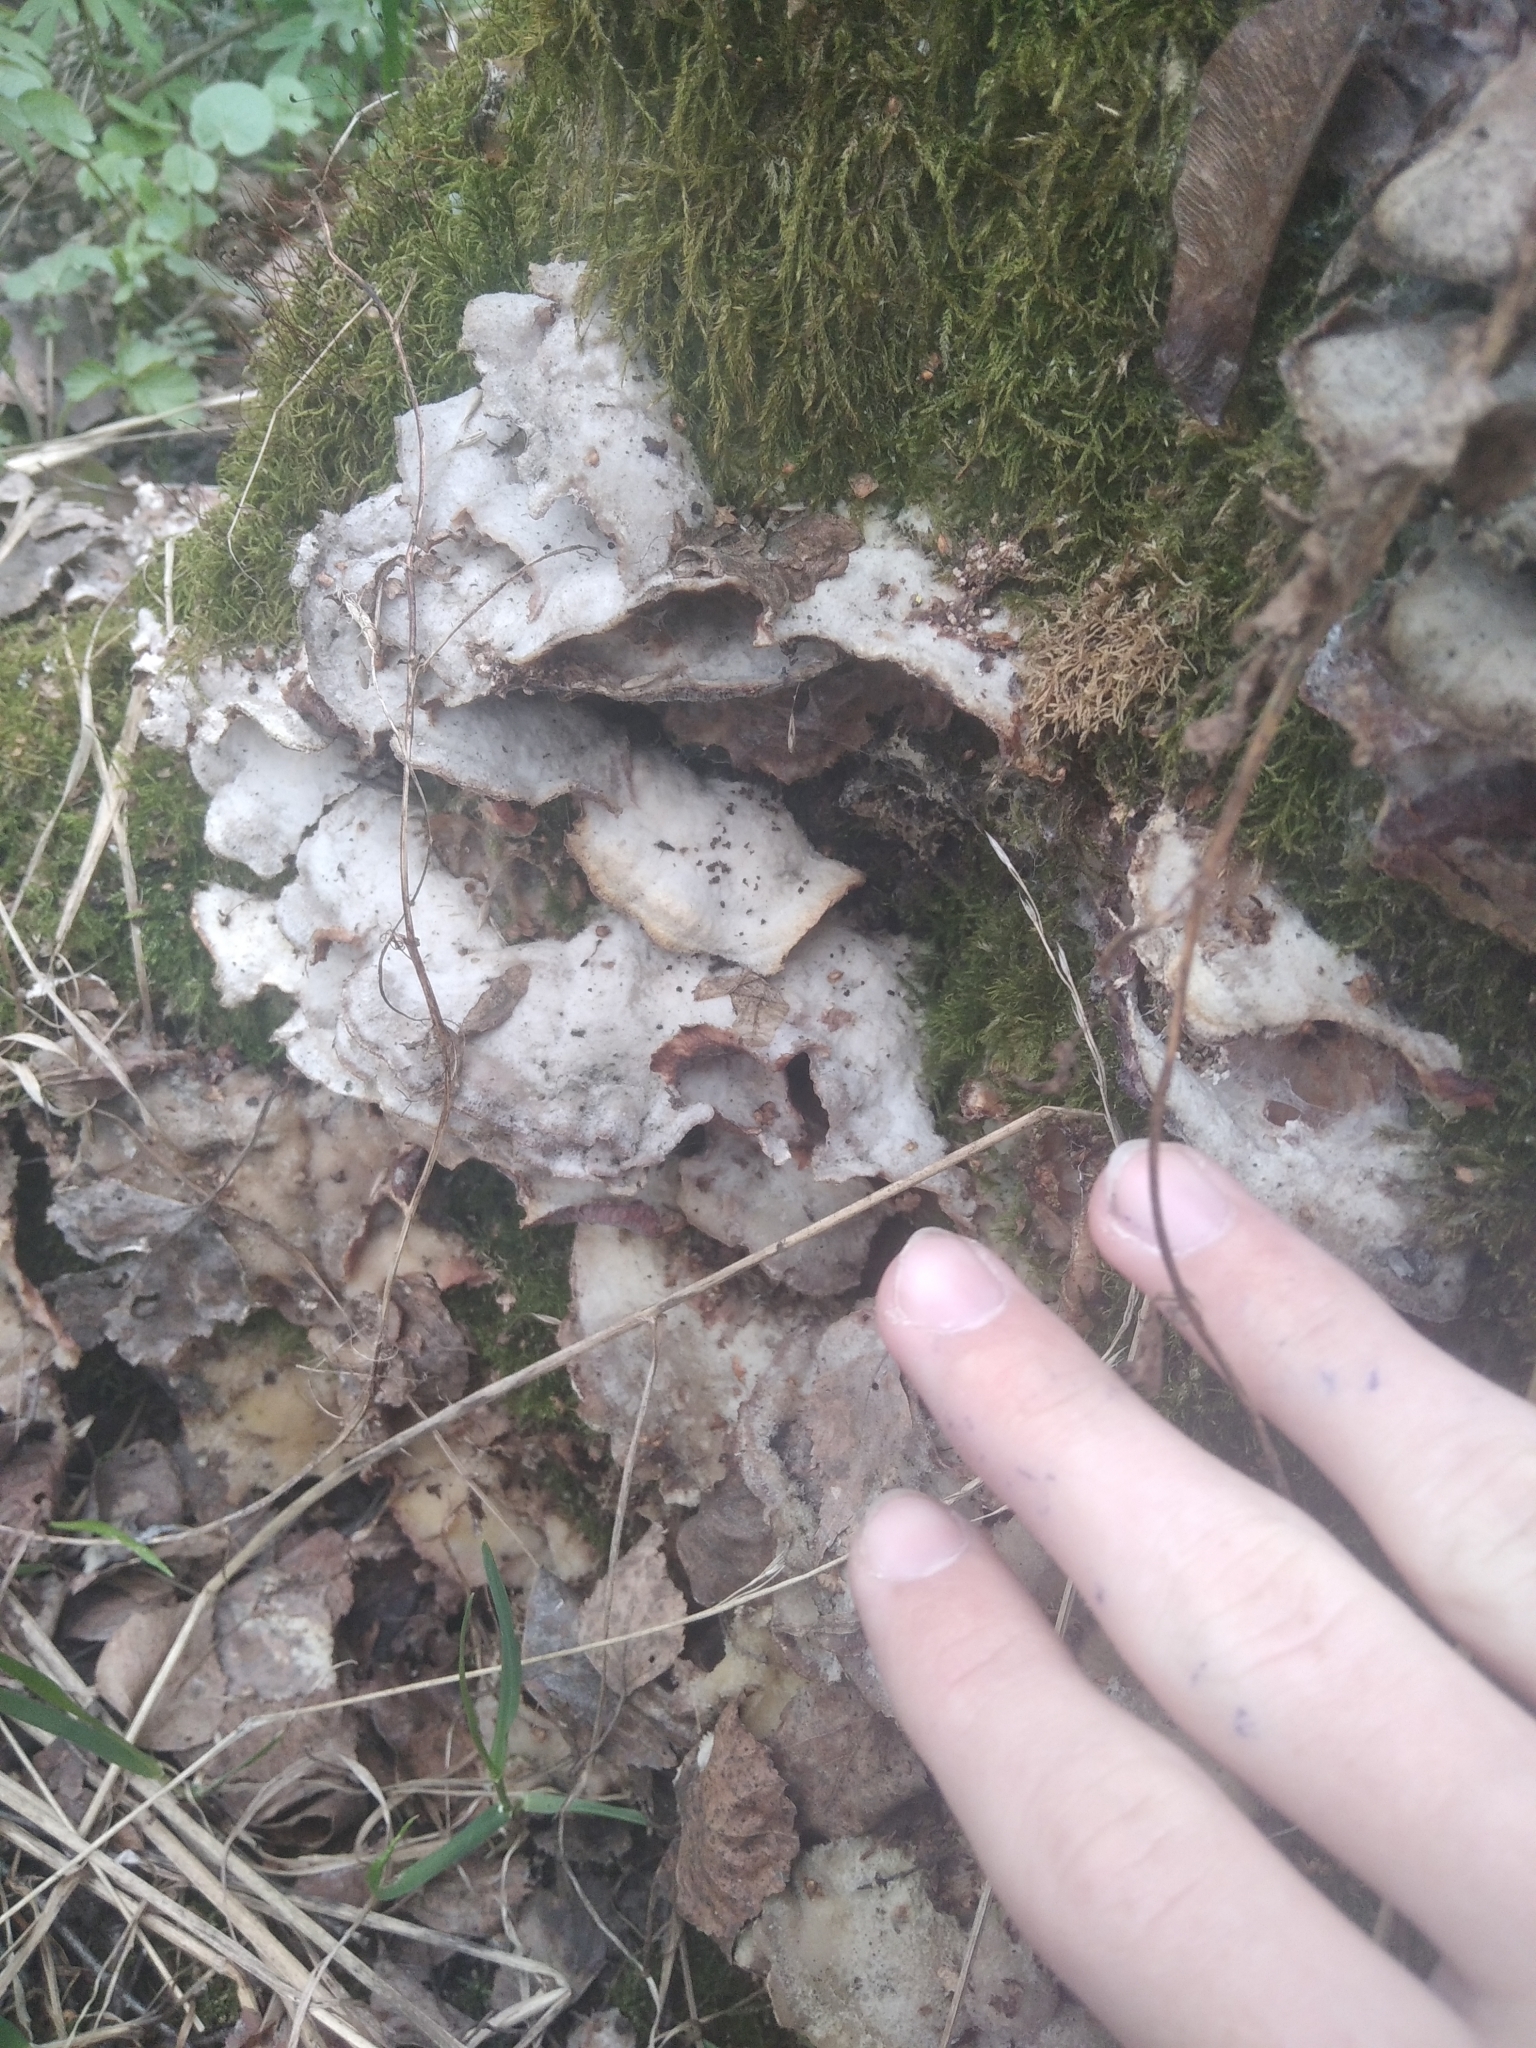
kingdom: Fungi
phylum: Basidiomycota
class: Agaricomycetes
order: Polyporales
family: Phanerochaetaceae
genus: Bjerkandera
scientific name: Bjerkandera adusta
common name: Smoky bracket
